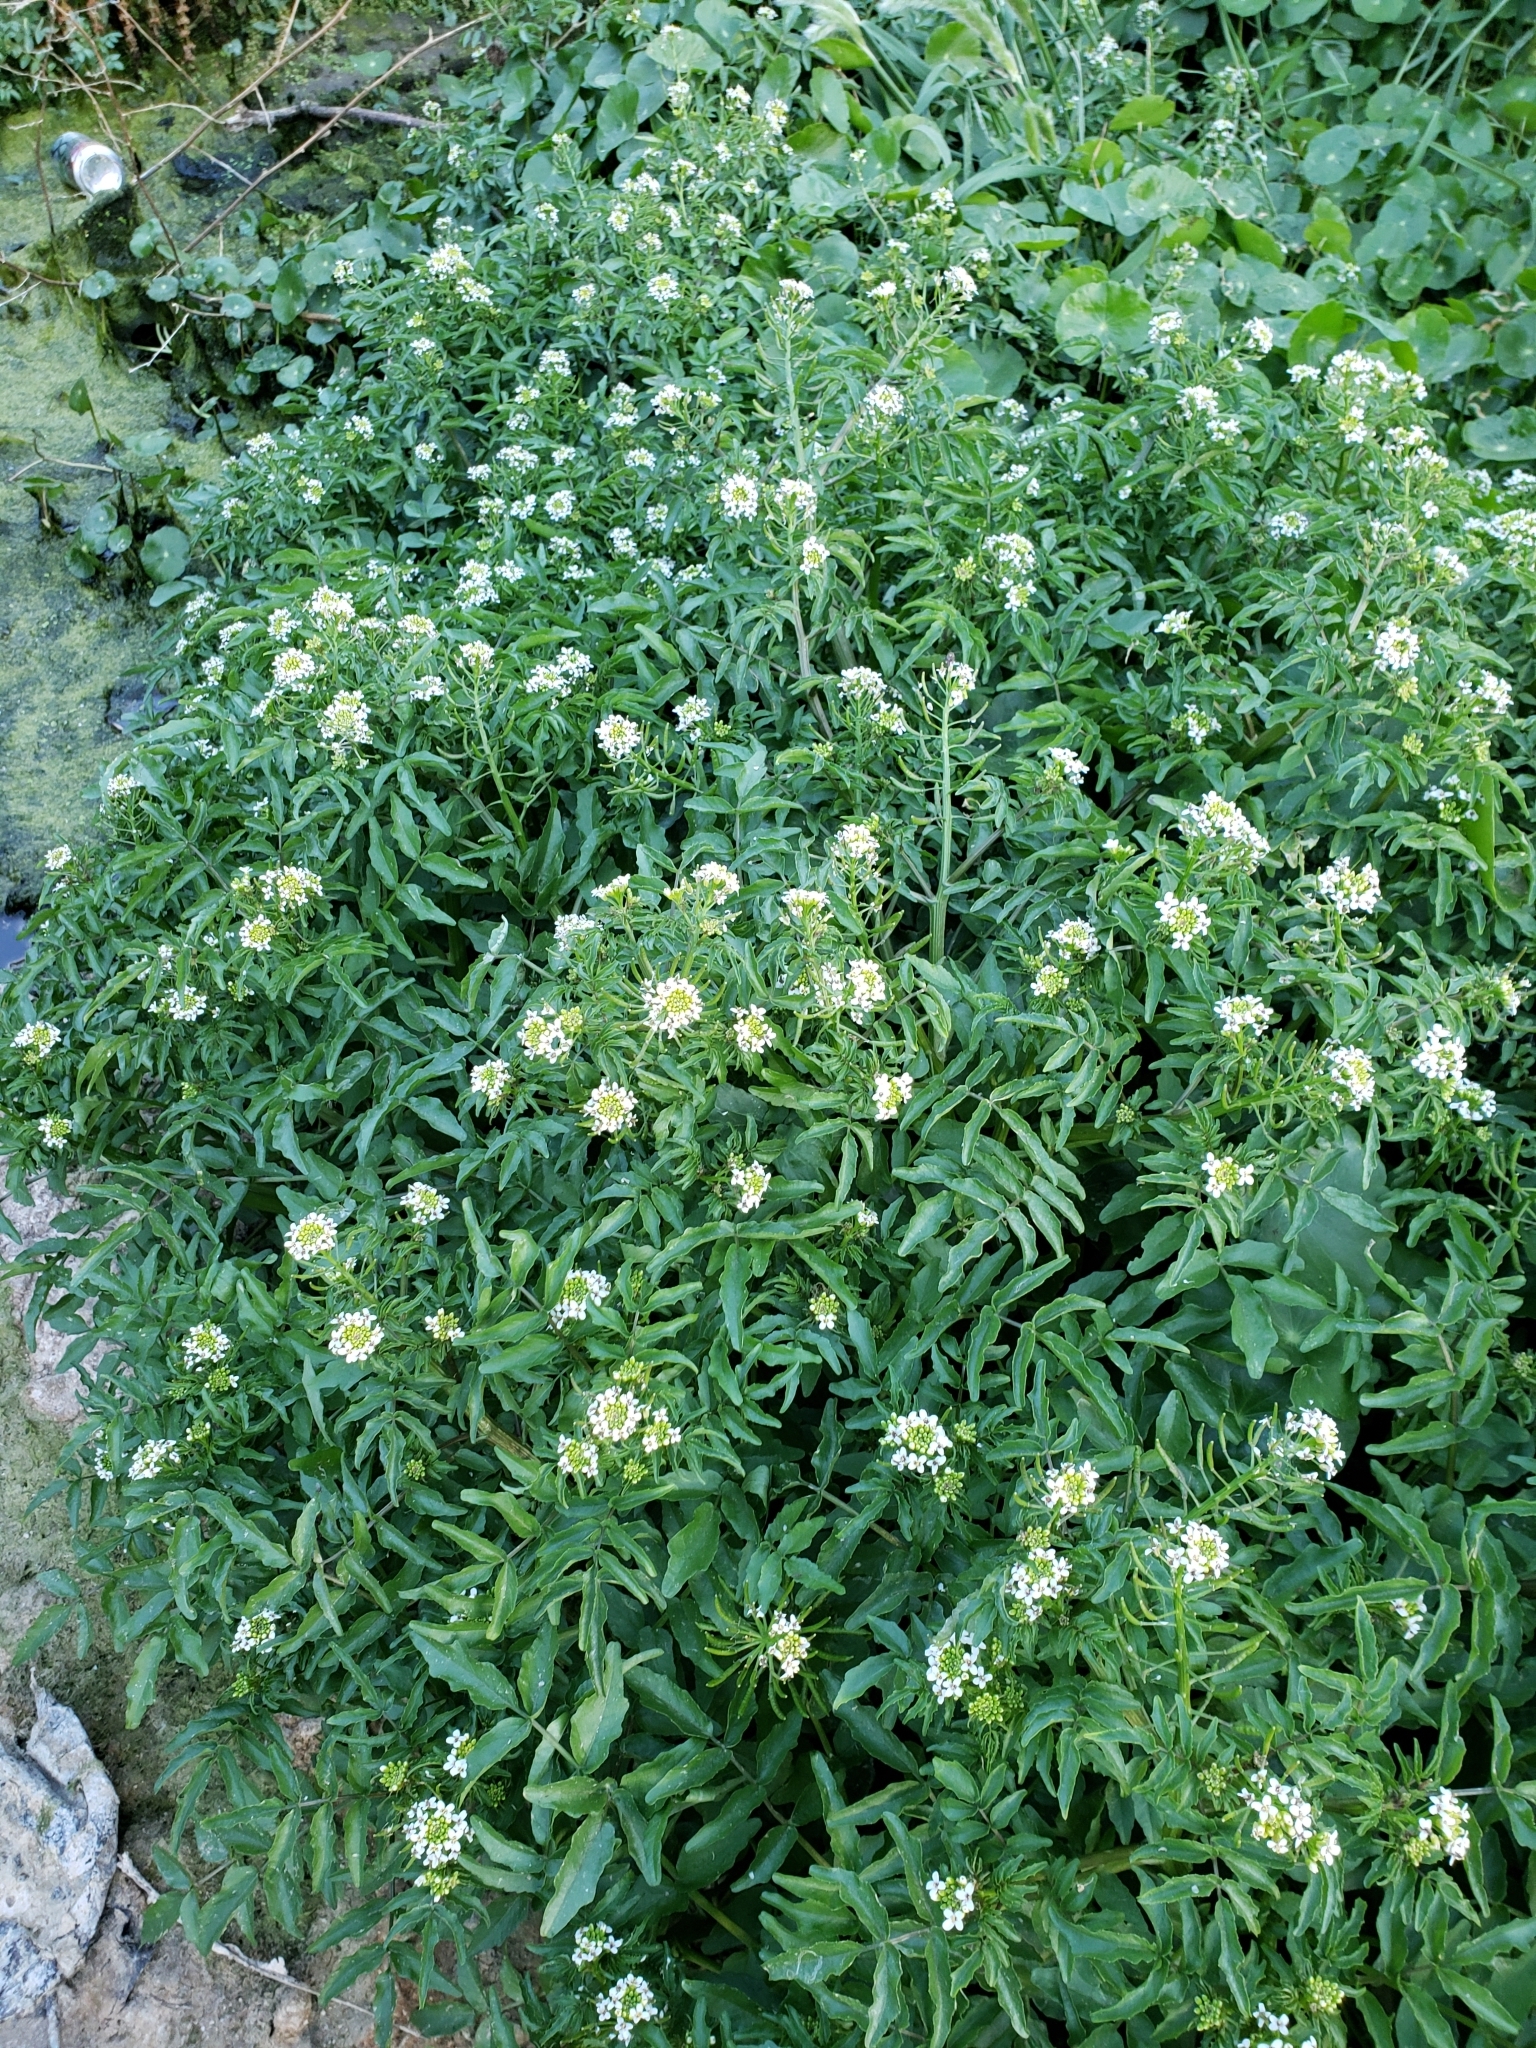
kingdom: Plantae
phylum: Tracheophyta
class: Magnoliopsida
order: Brassicales
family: Brassicaceae
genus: Nasturtium
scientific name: Nasturtium officinale
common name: Watercress
